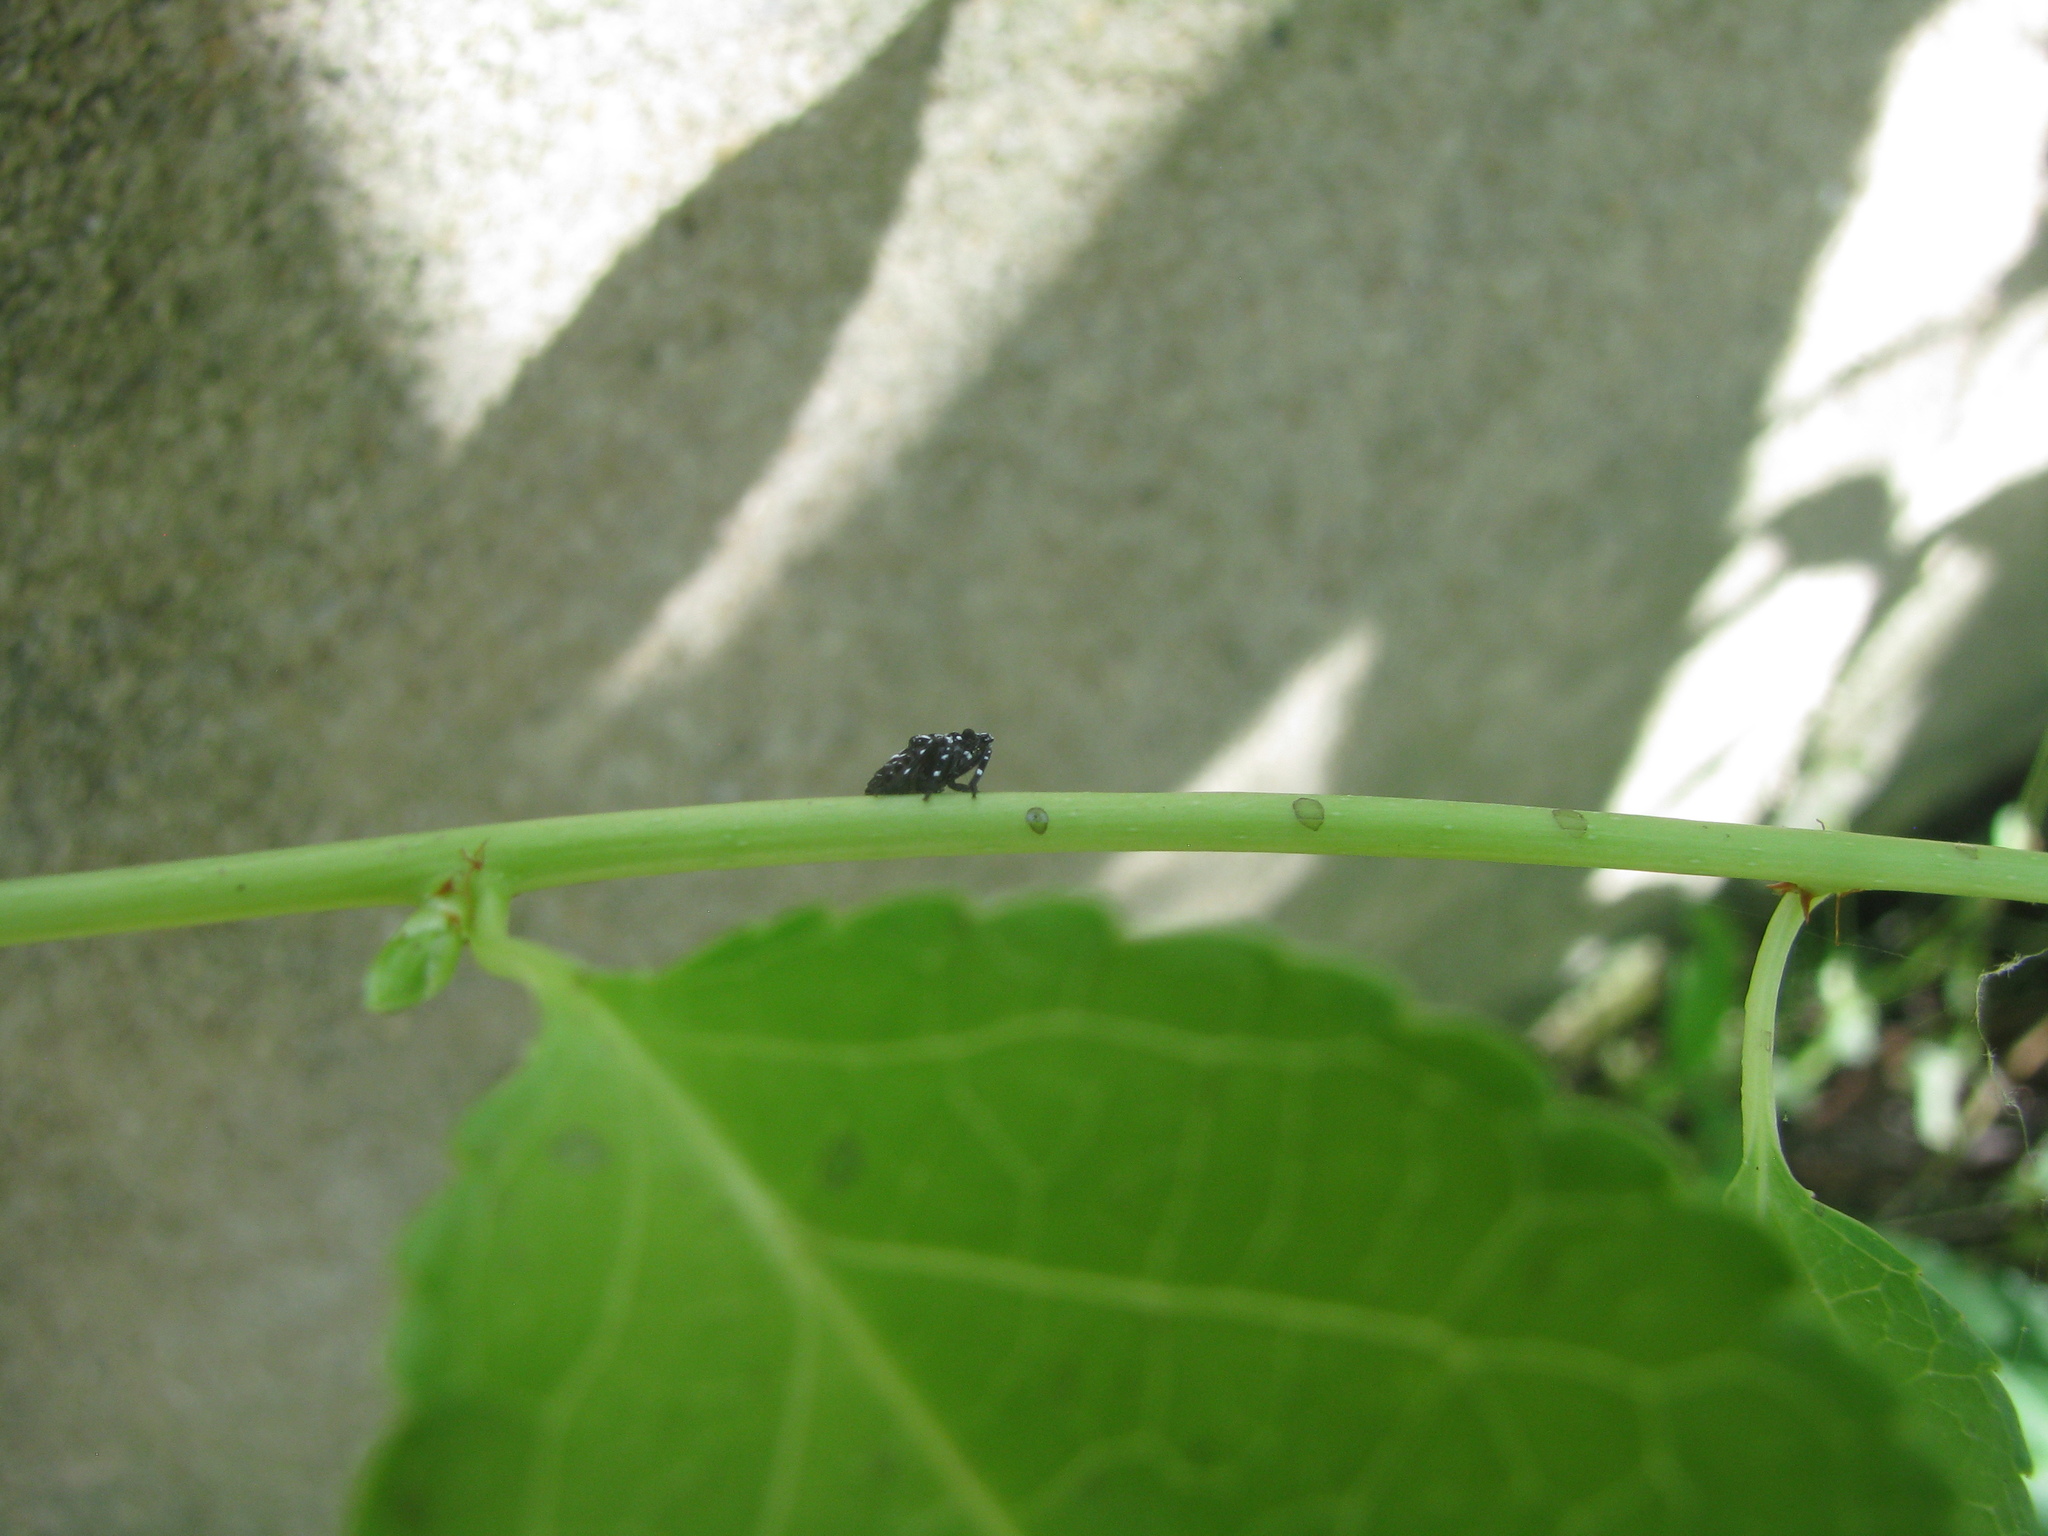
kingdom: Animalia
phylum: Arthropoda
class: Insecta
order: Hemiptera
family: Fulgoridae
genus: Lycorma
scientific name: Lycorma delicatula
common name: Spotted lanternfly
